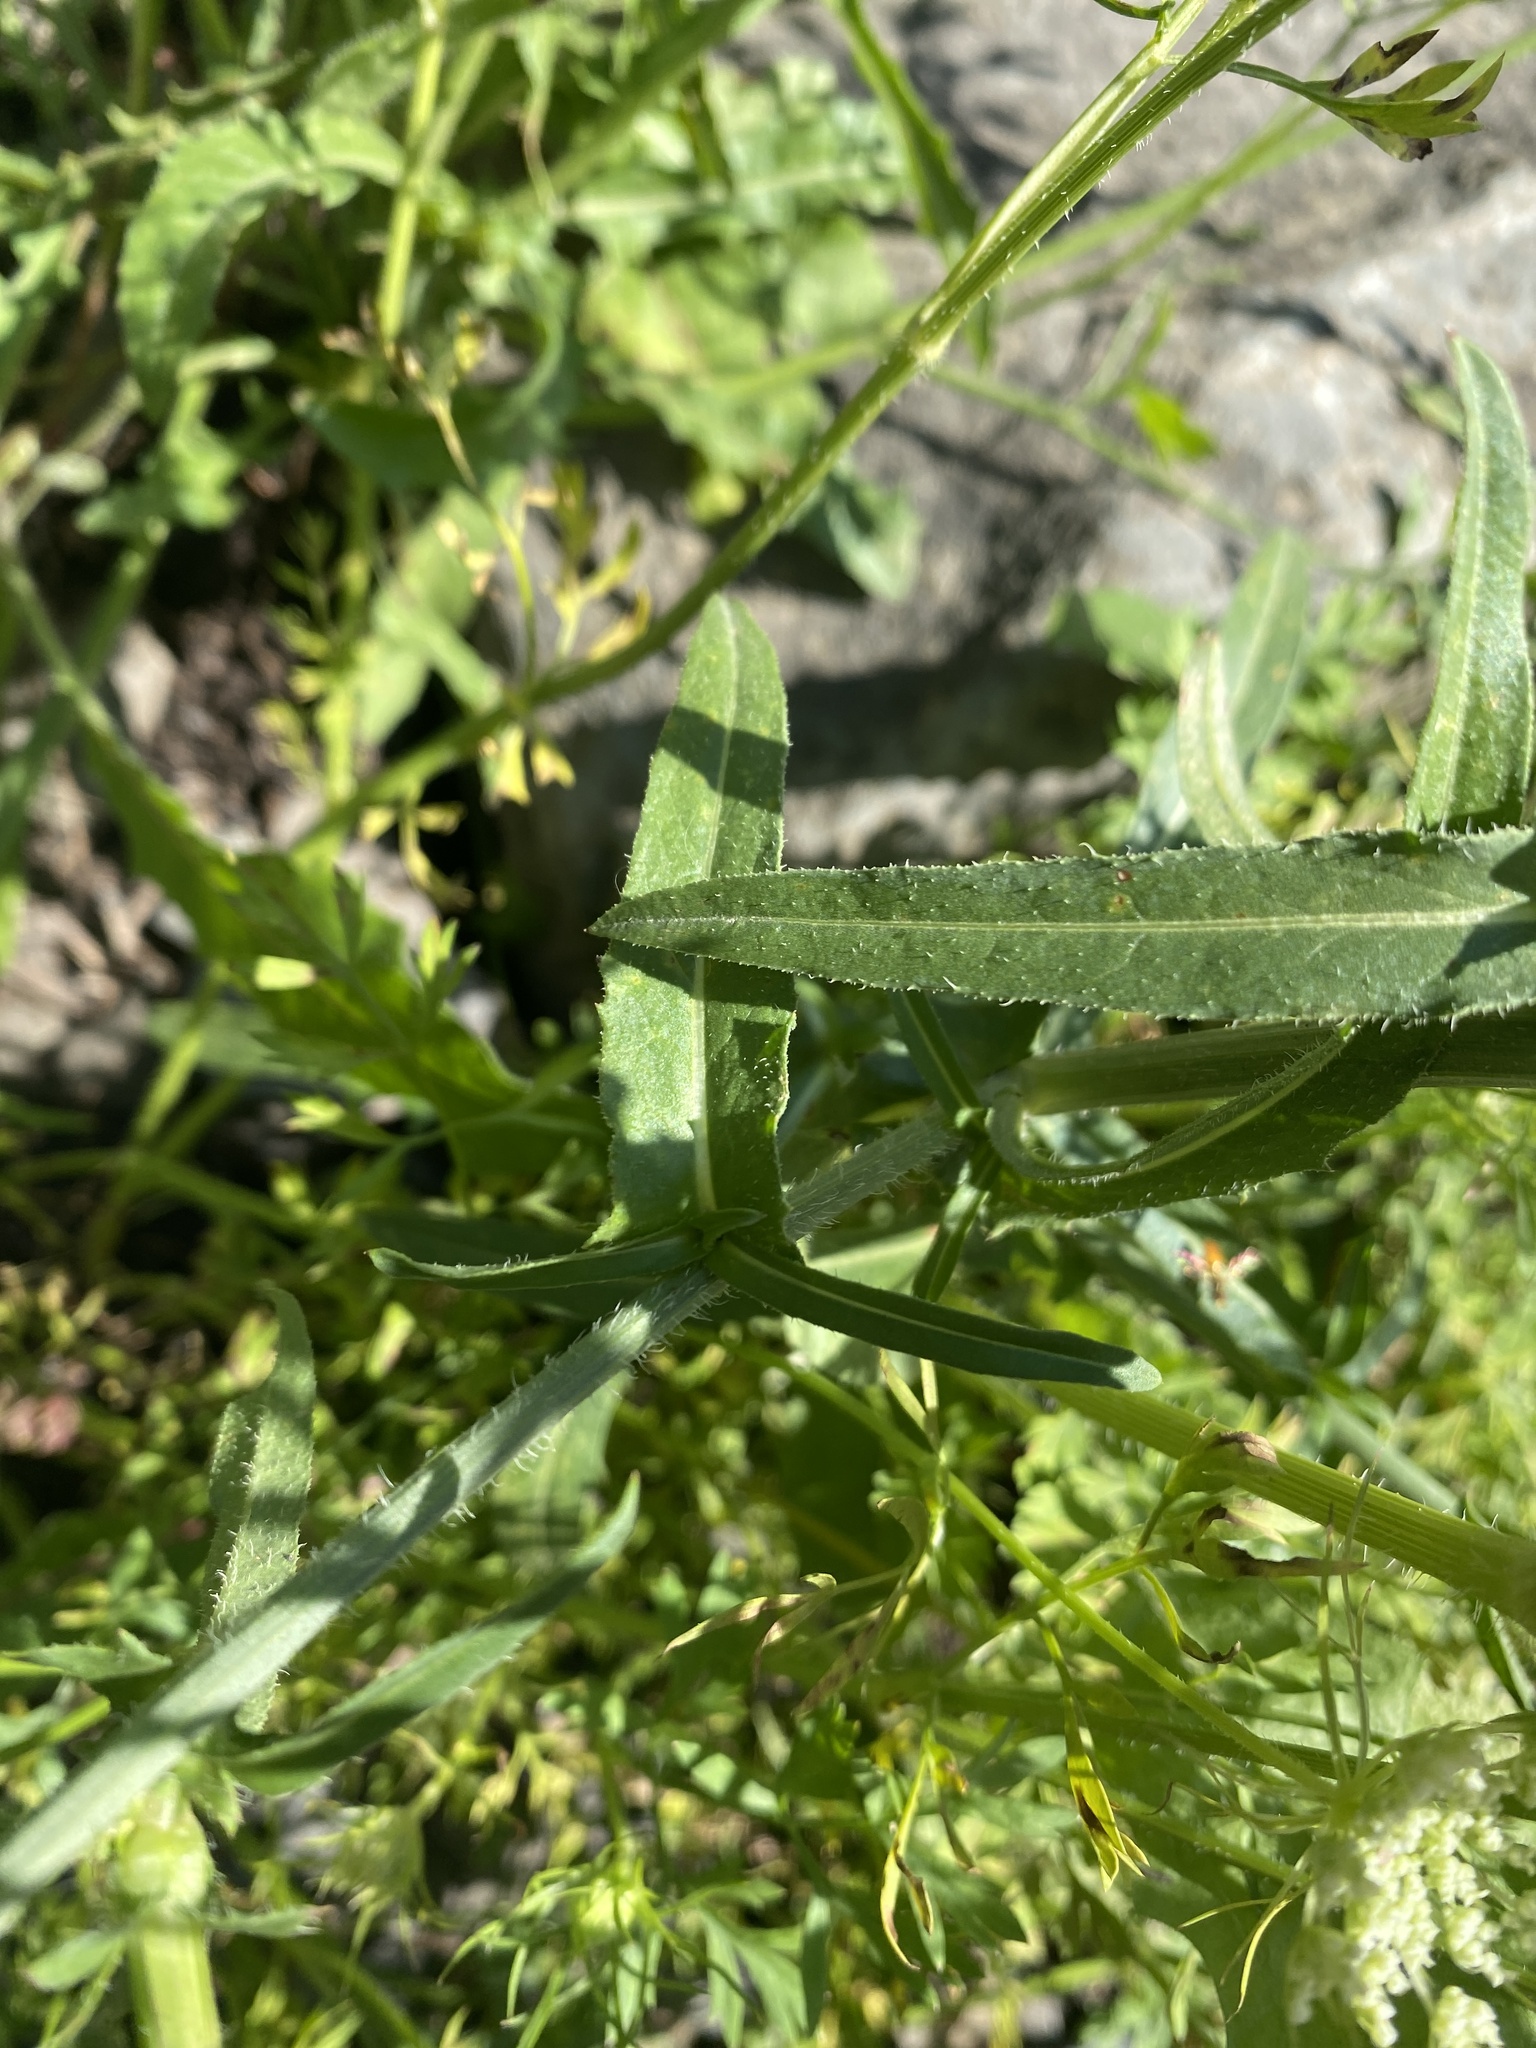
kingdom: Plantae
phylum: Tracheophyta
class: Magnoliopsida
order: Asterales
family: Asteraceae
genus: Cichorium
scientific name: Cichorium intybus
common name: Chicory
